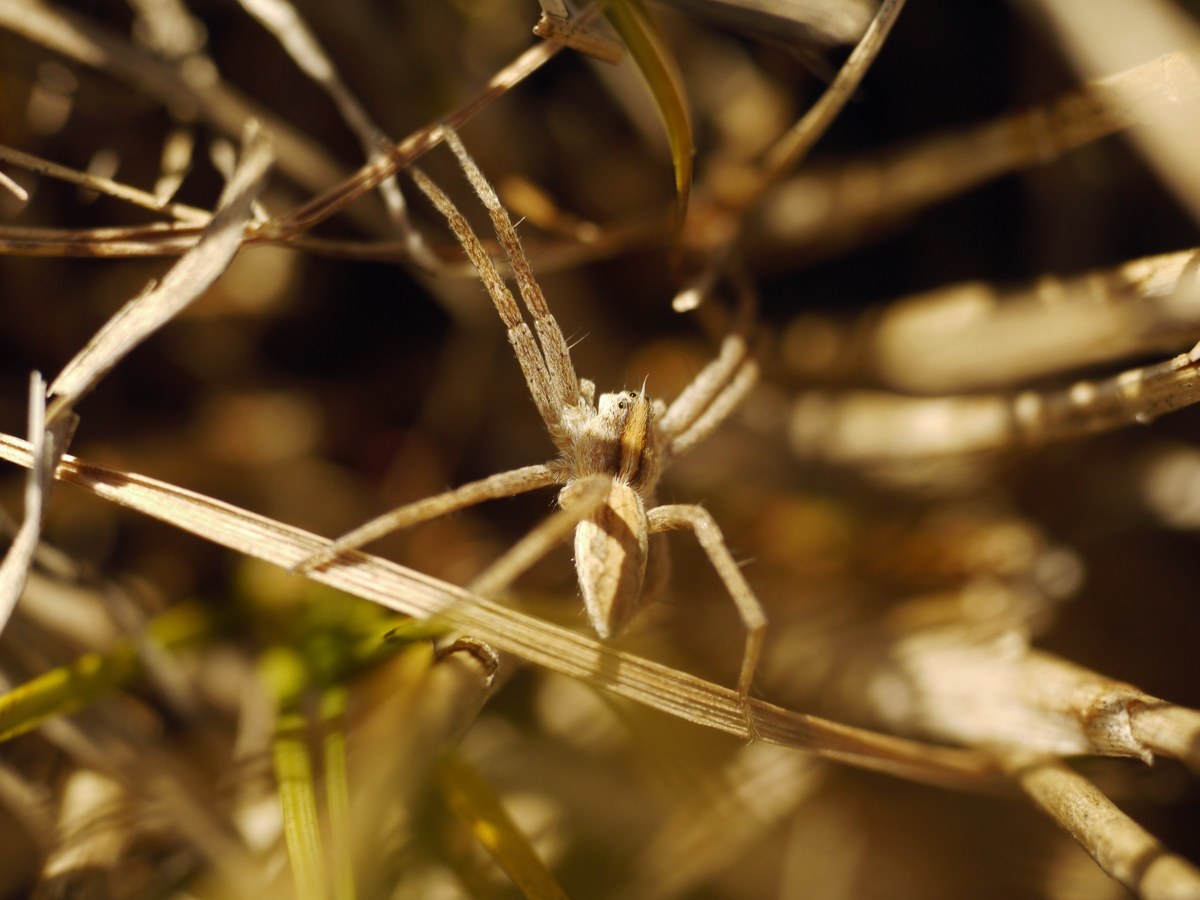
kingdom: Animalia
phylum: Arthropoda
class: Arachnida
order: Araneae
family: Pisauridae
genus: Pisaura
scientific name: Pisaura
